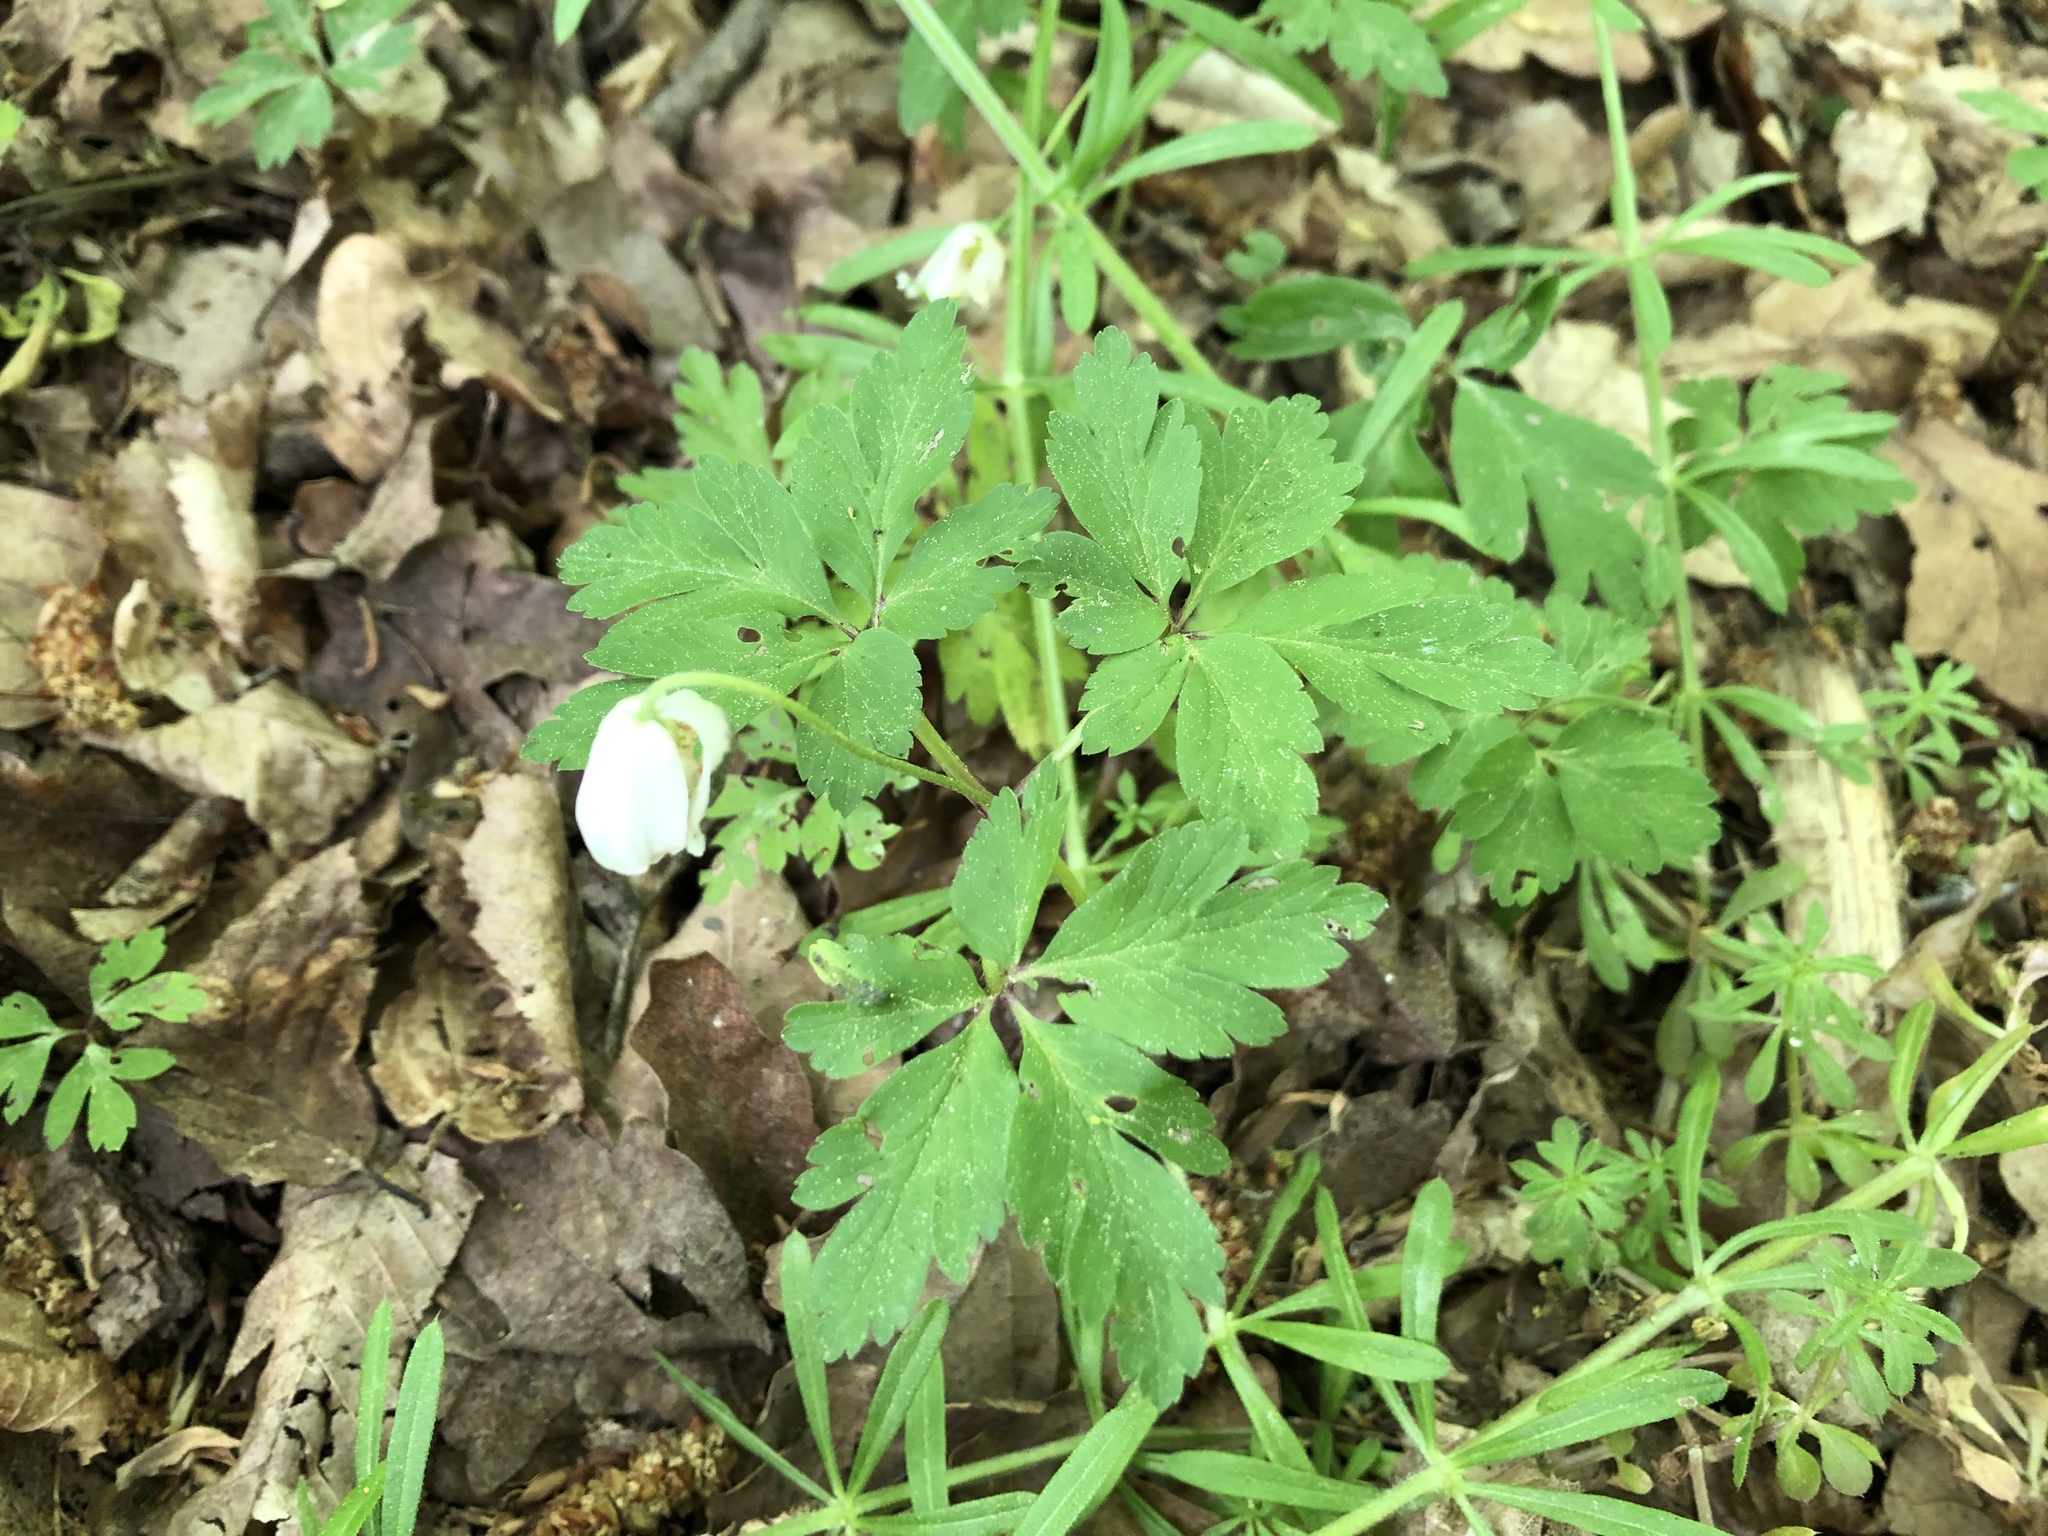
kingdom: Plantae
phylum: Tracheophyta
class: Magnoliopsida
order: Ranunculales
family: Ranunculaceae
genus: Anemone
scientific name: Anemone nemorosa
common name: Wood anemone
